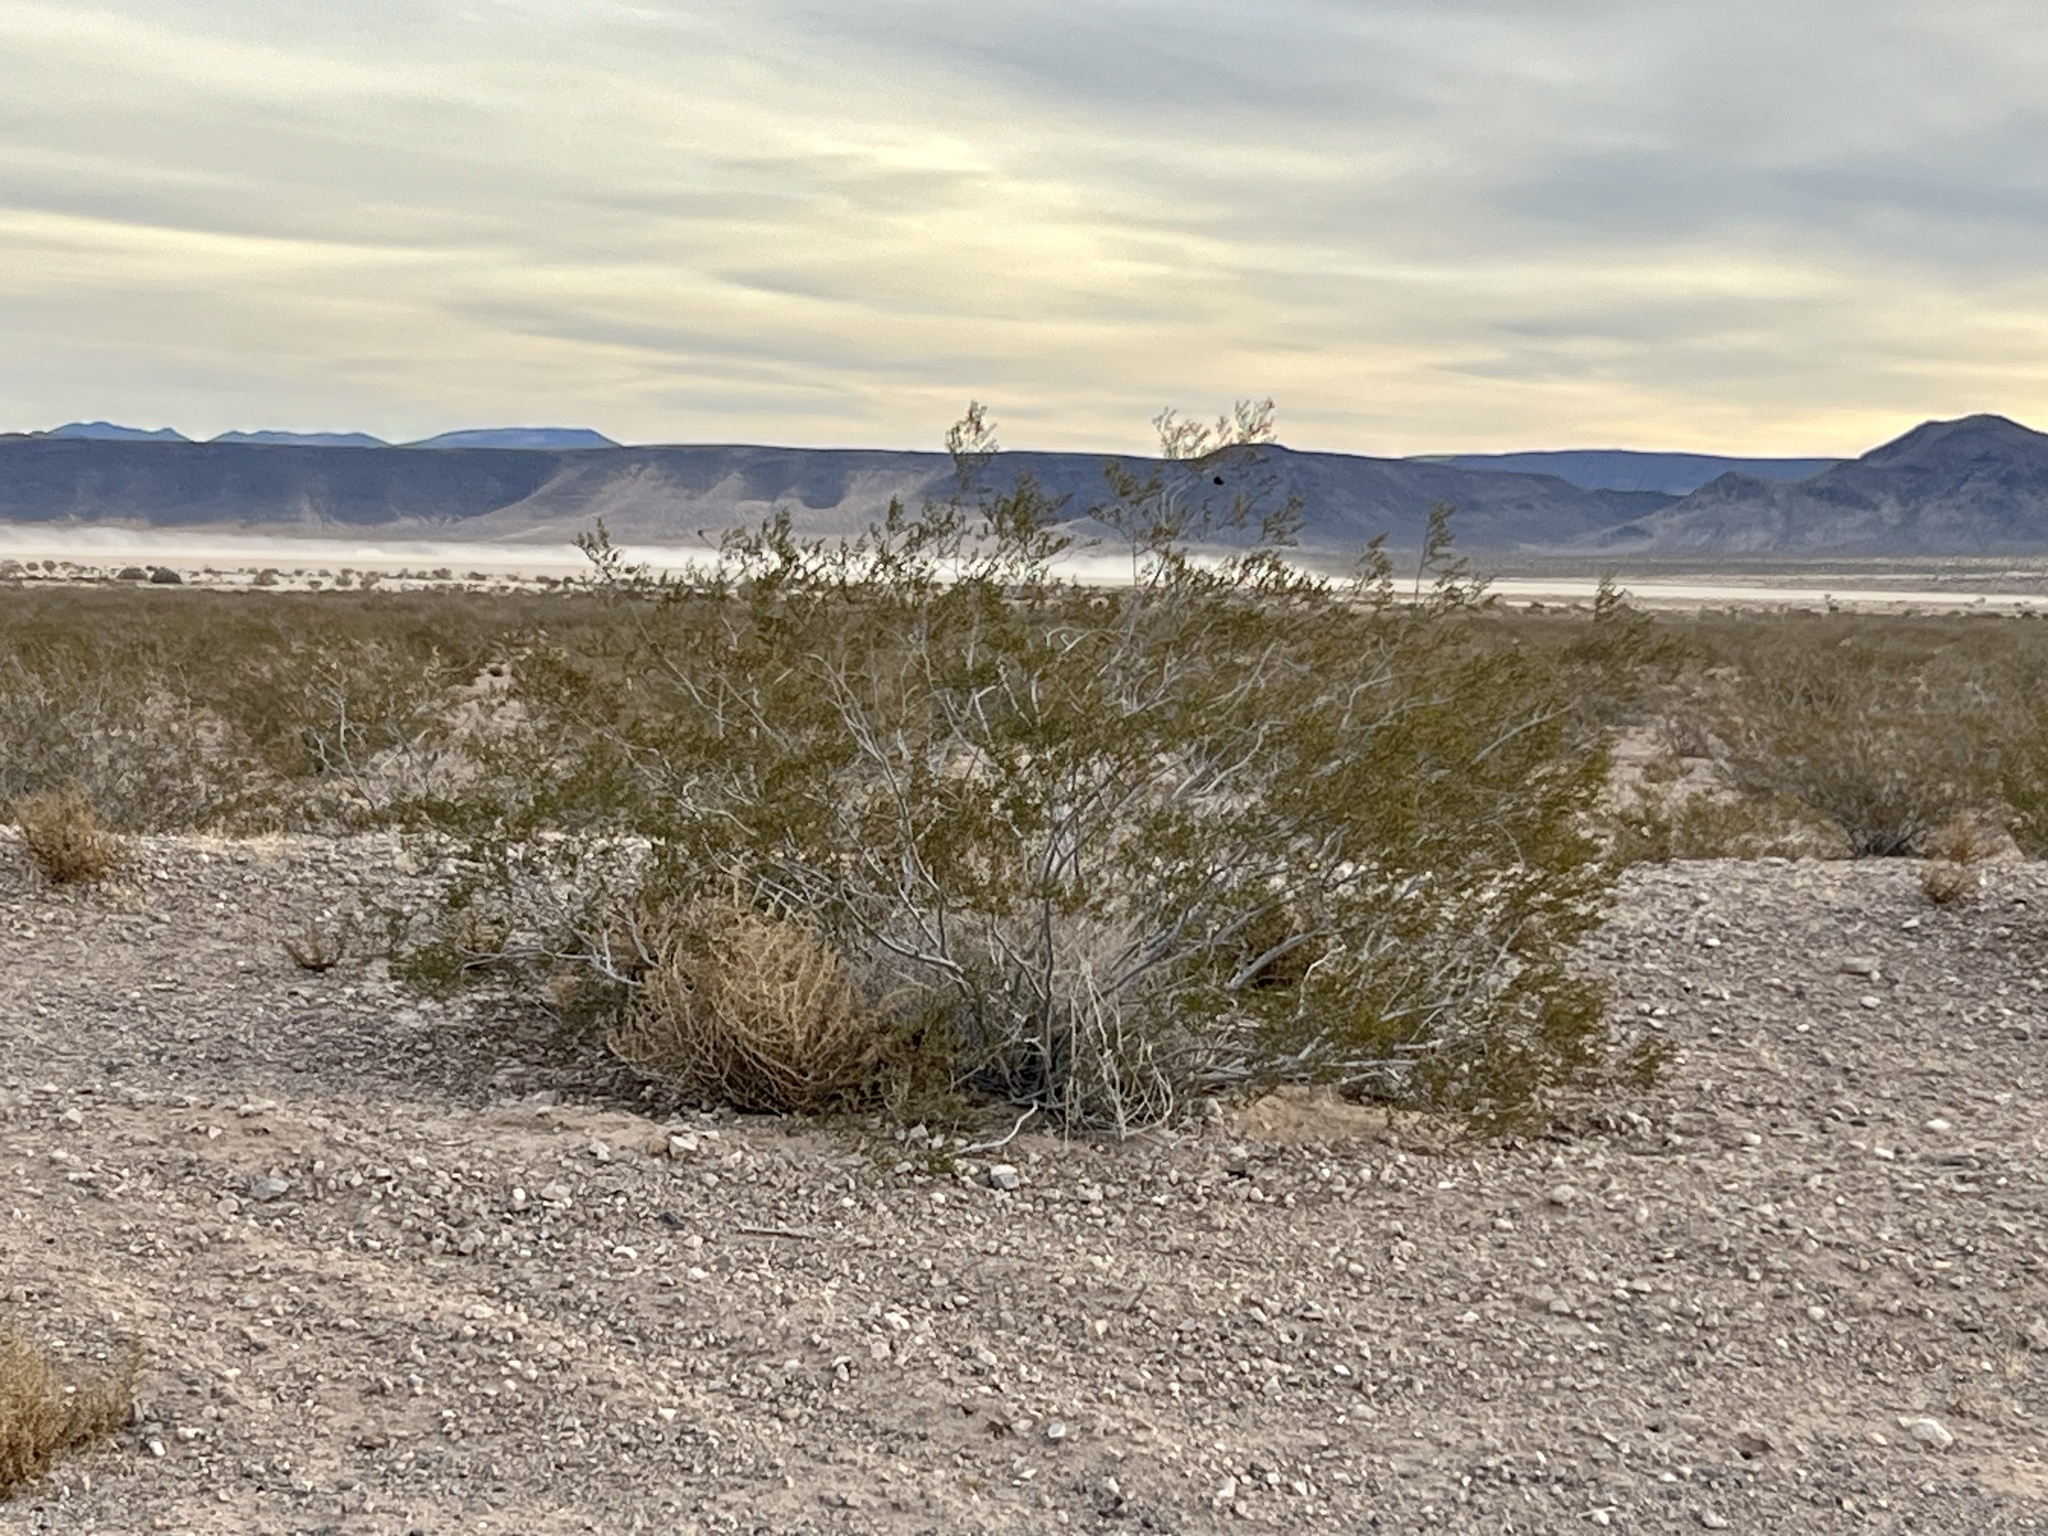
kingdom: Plantae
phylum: Tracheophyta
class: Magnoliopsida
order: Zygophyllales
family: Zygophyllaceae
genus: Larrea
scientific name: Larrea tridentata
